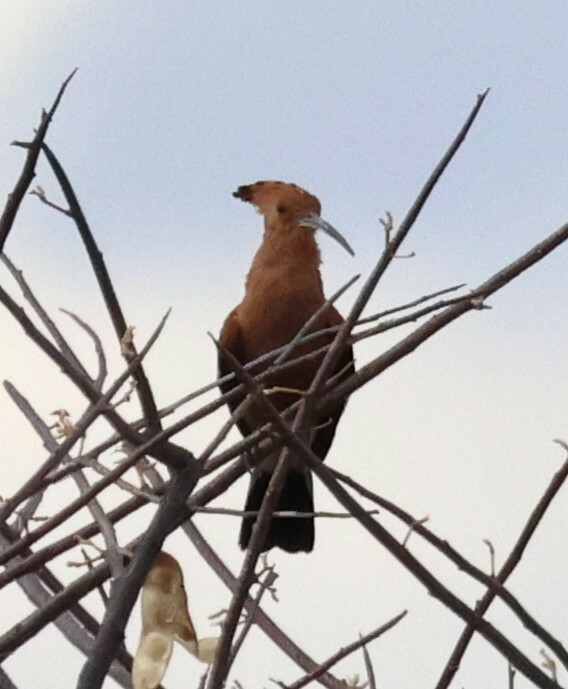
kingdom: Animalia
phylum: Chordata
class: Aves
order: Bucerotiformes
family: Upupidae
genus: Upupa
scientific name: Upupa africana
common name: African hoopoe
